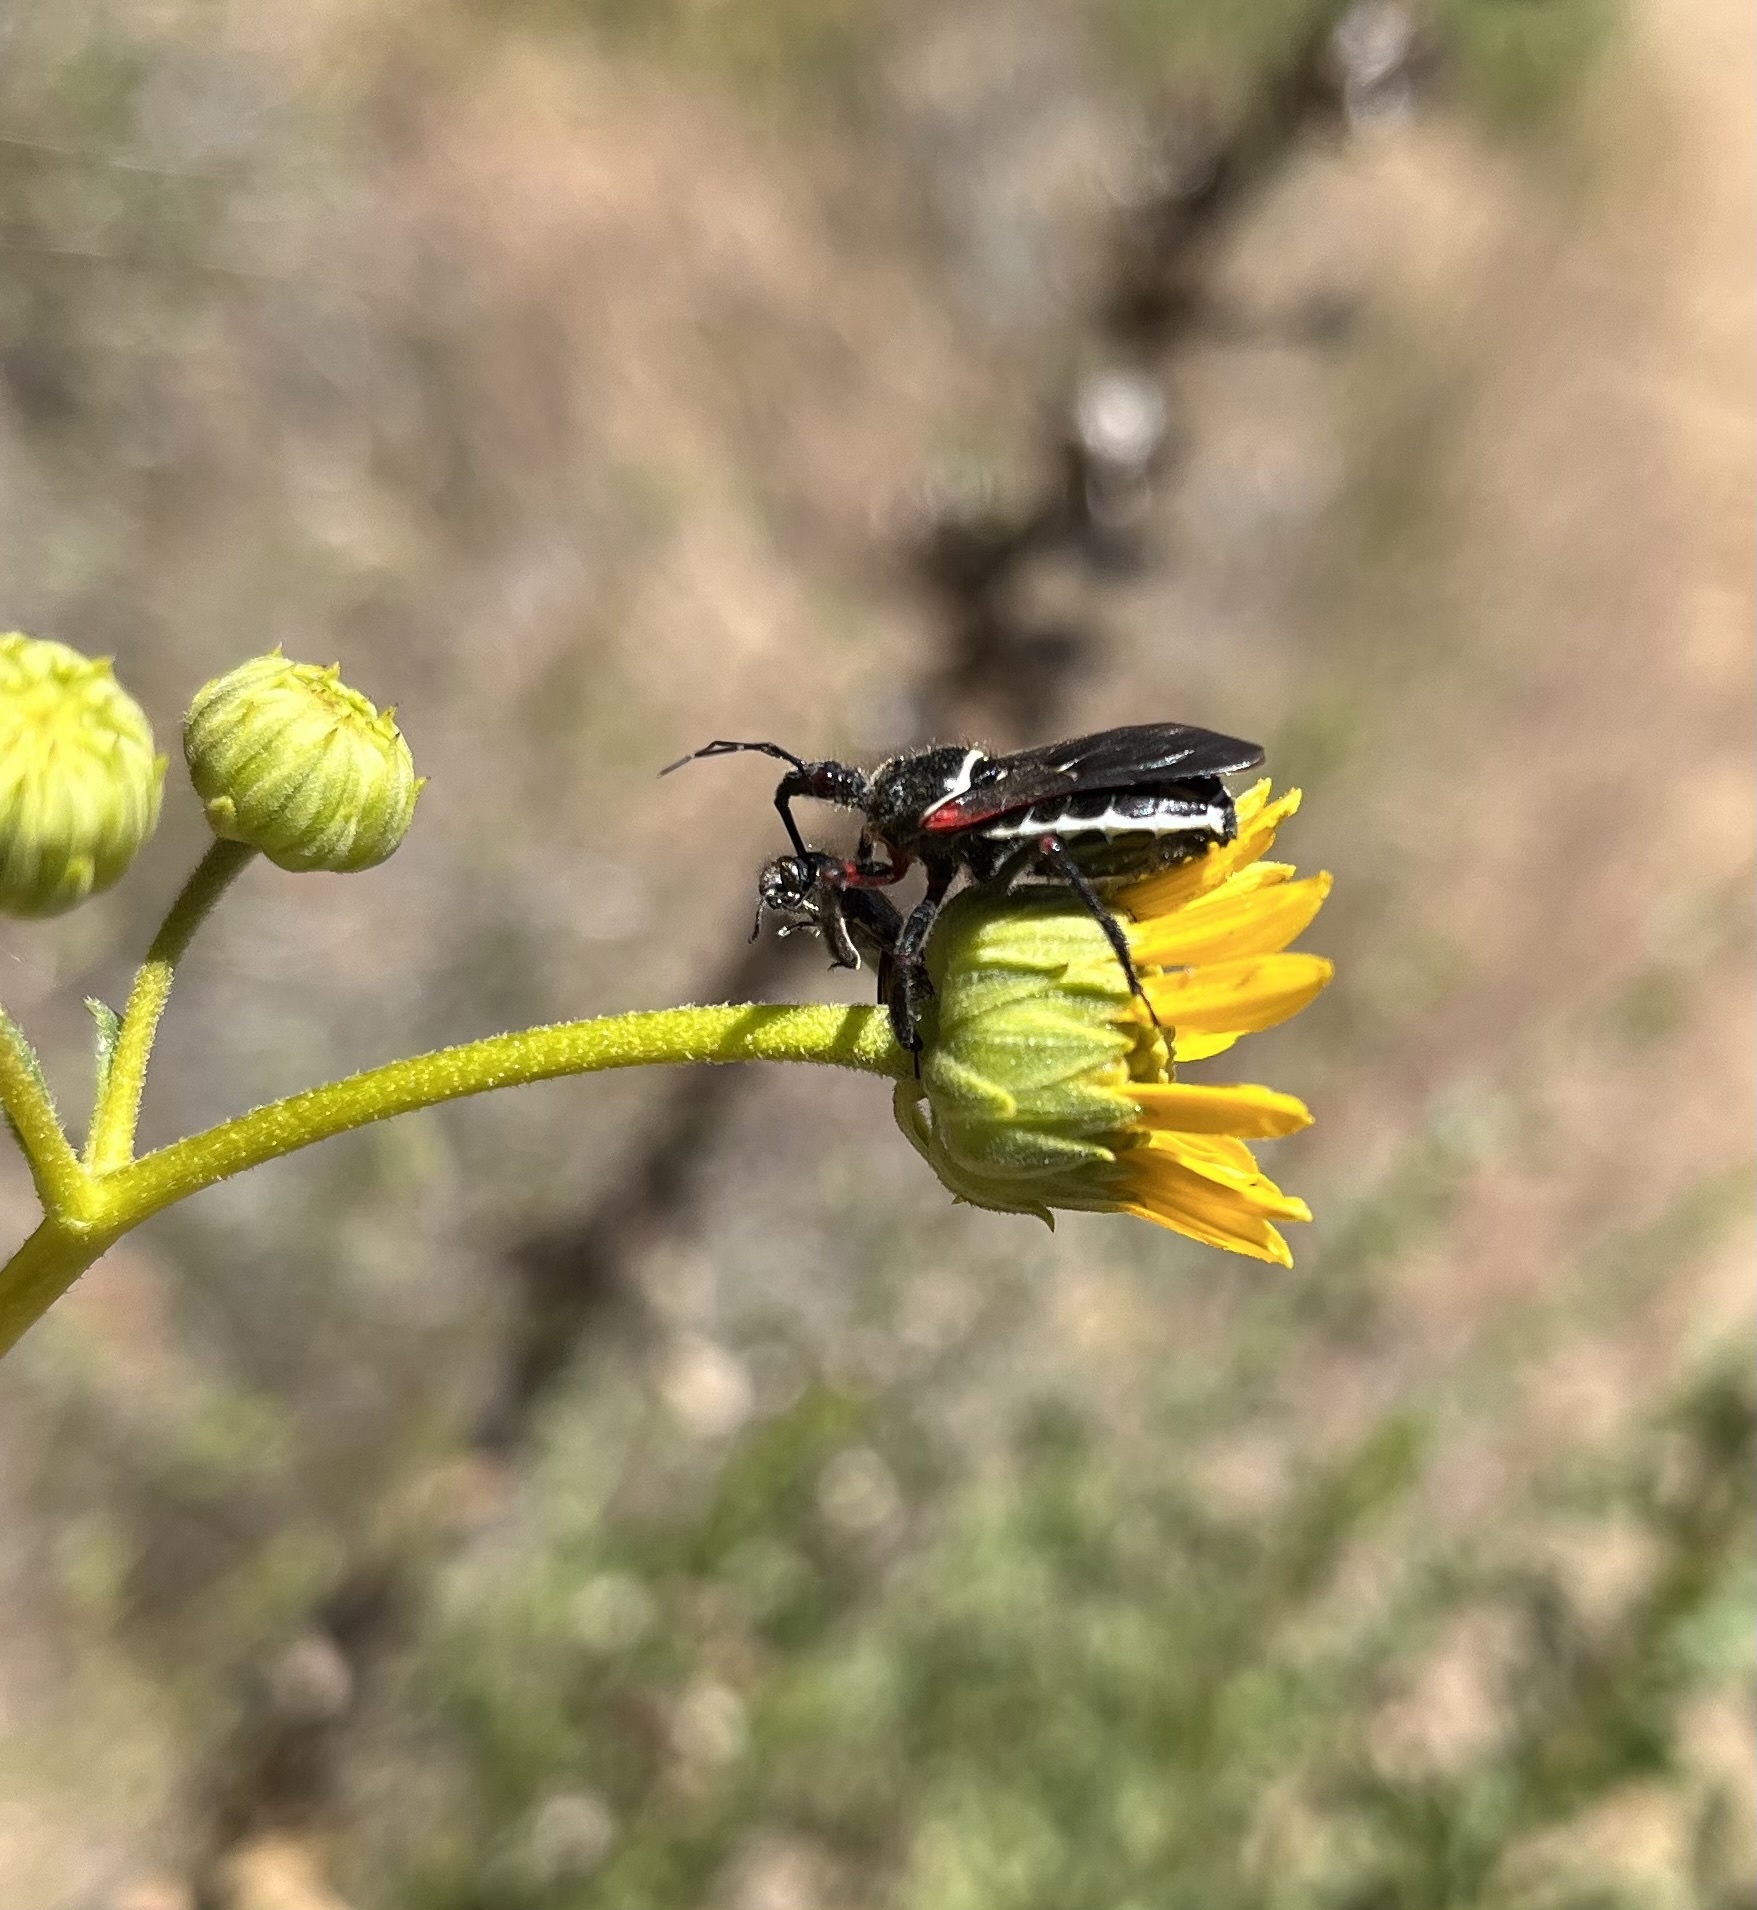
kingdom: Animalia
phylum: Arthropoda
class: Insecta
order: Hemiptera
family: Reduviidae
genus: Apiomerus
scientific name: Apiomerus californicus
